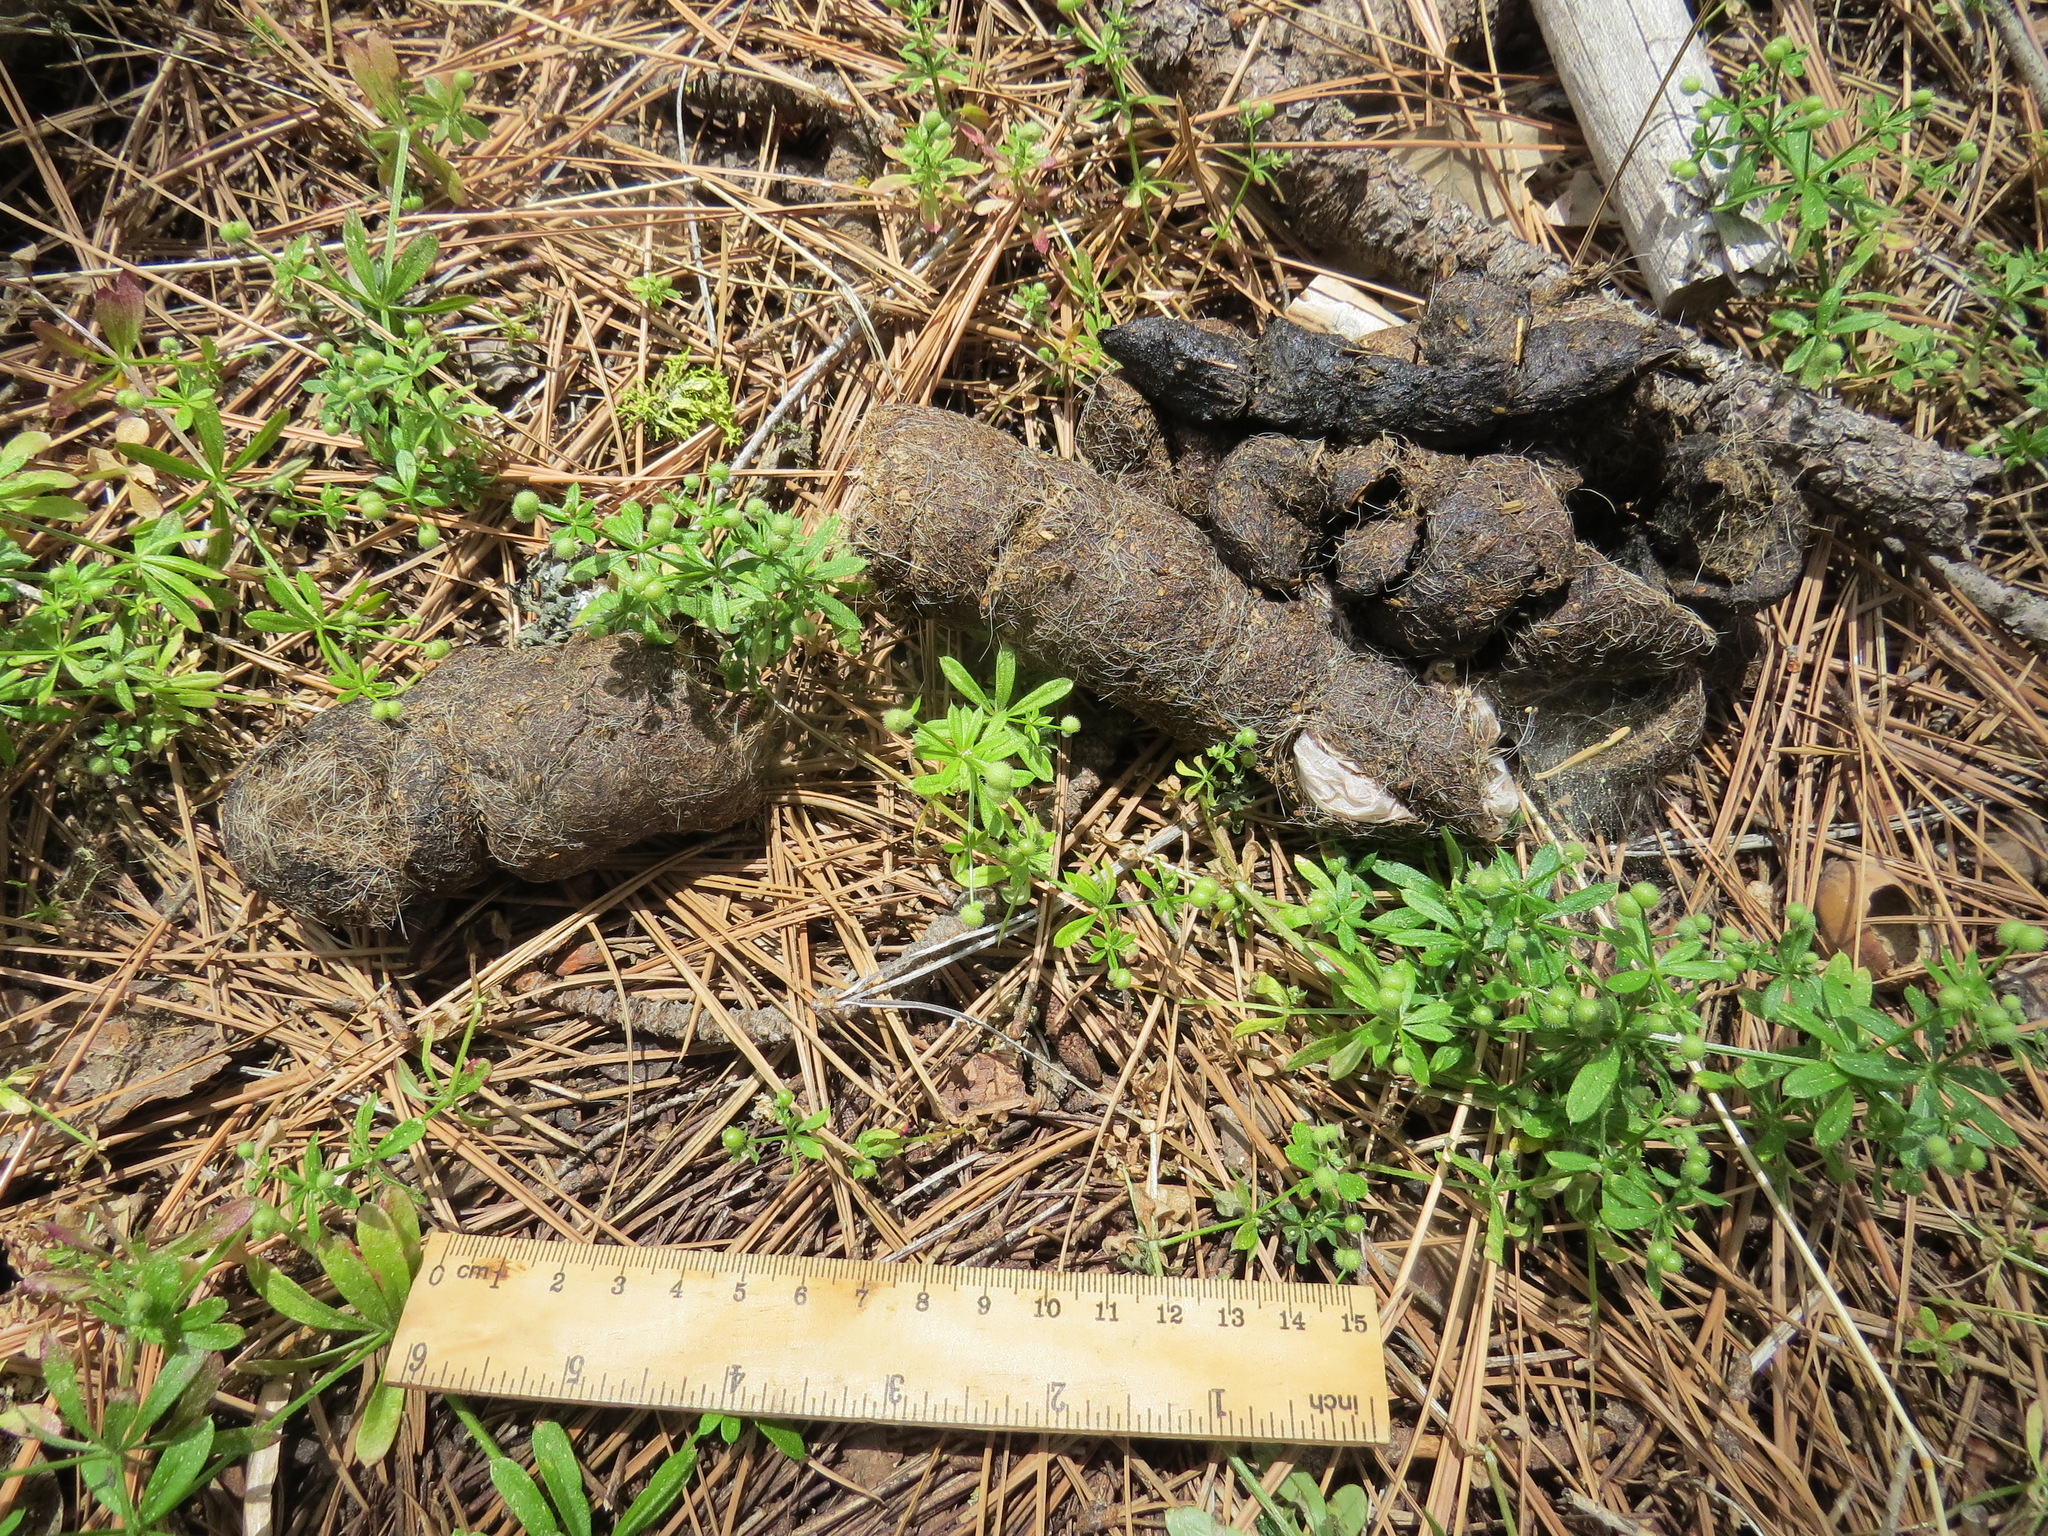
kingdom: Animalia
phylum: Chordata
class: Mammalia
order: Carnivora
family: Ursidae
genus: Ursus
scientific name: Ursus americanus
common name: American black bear
